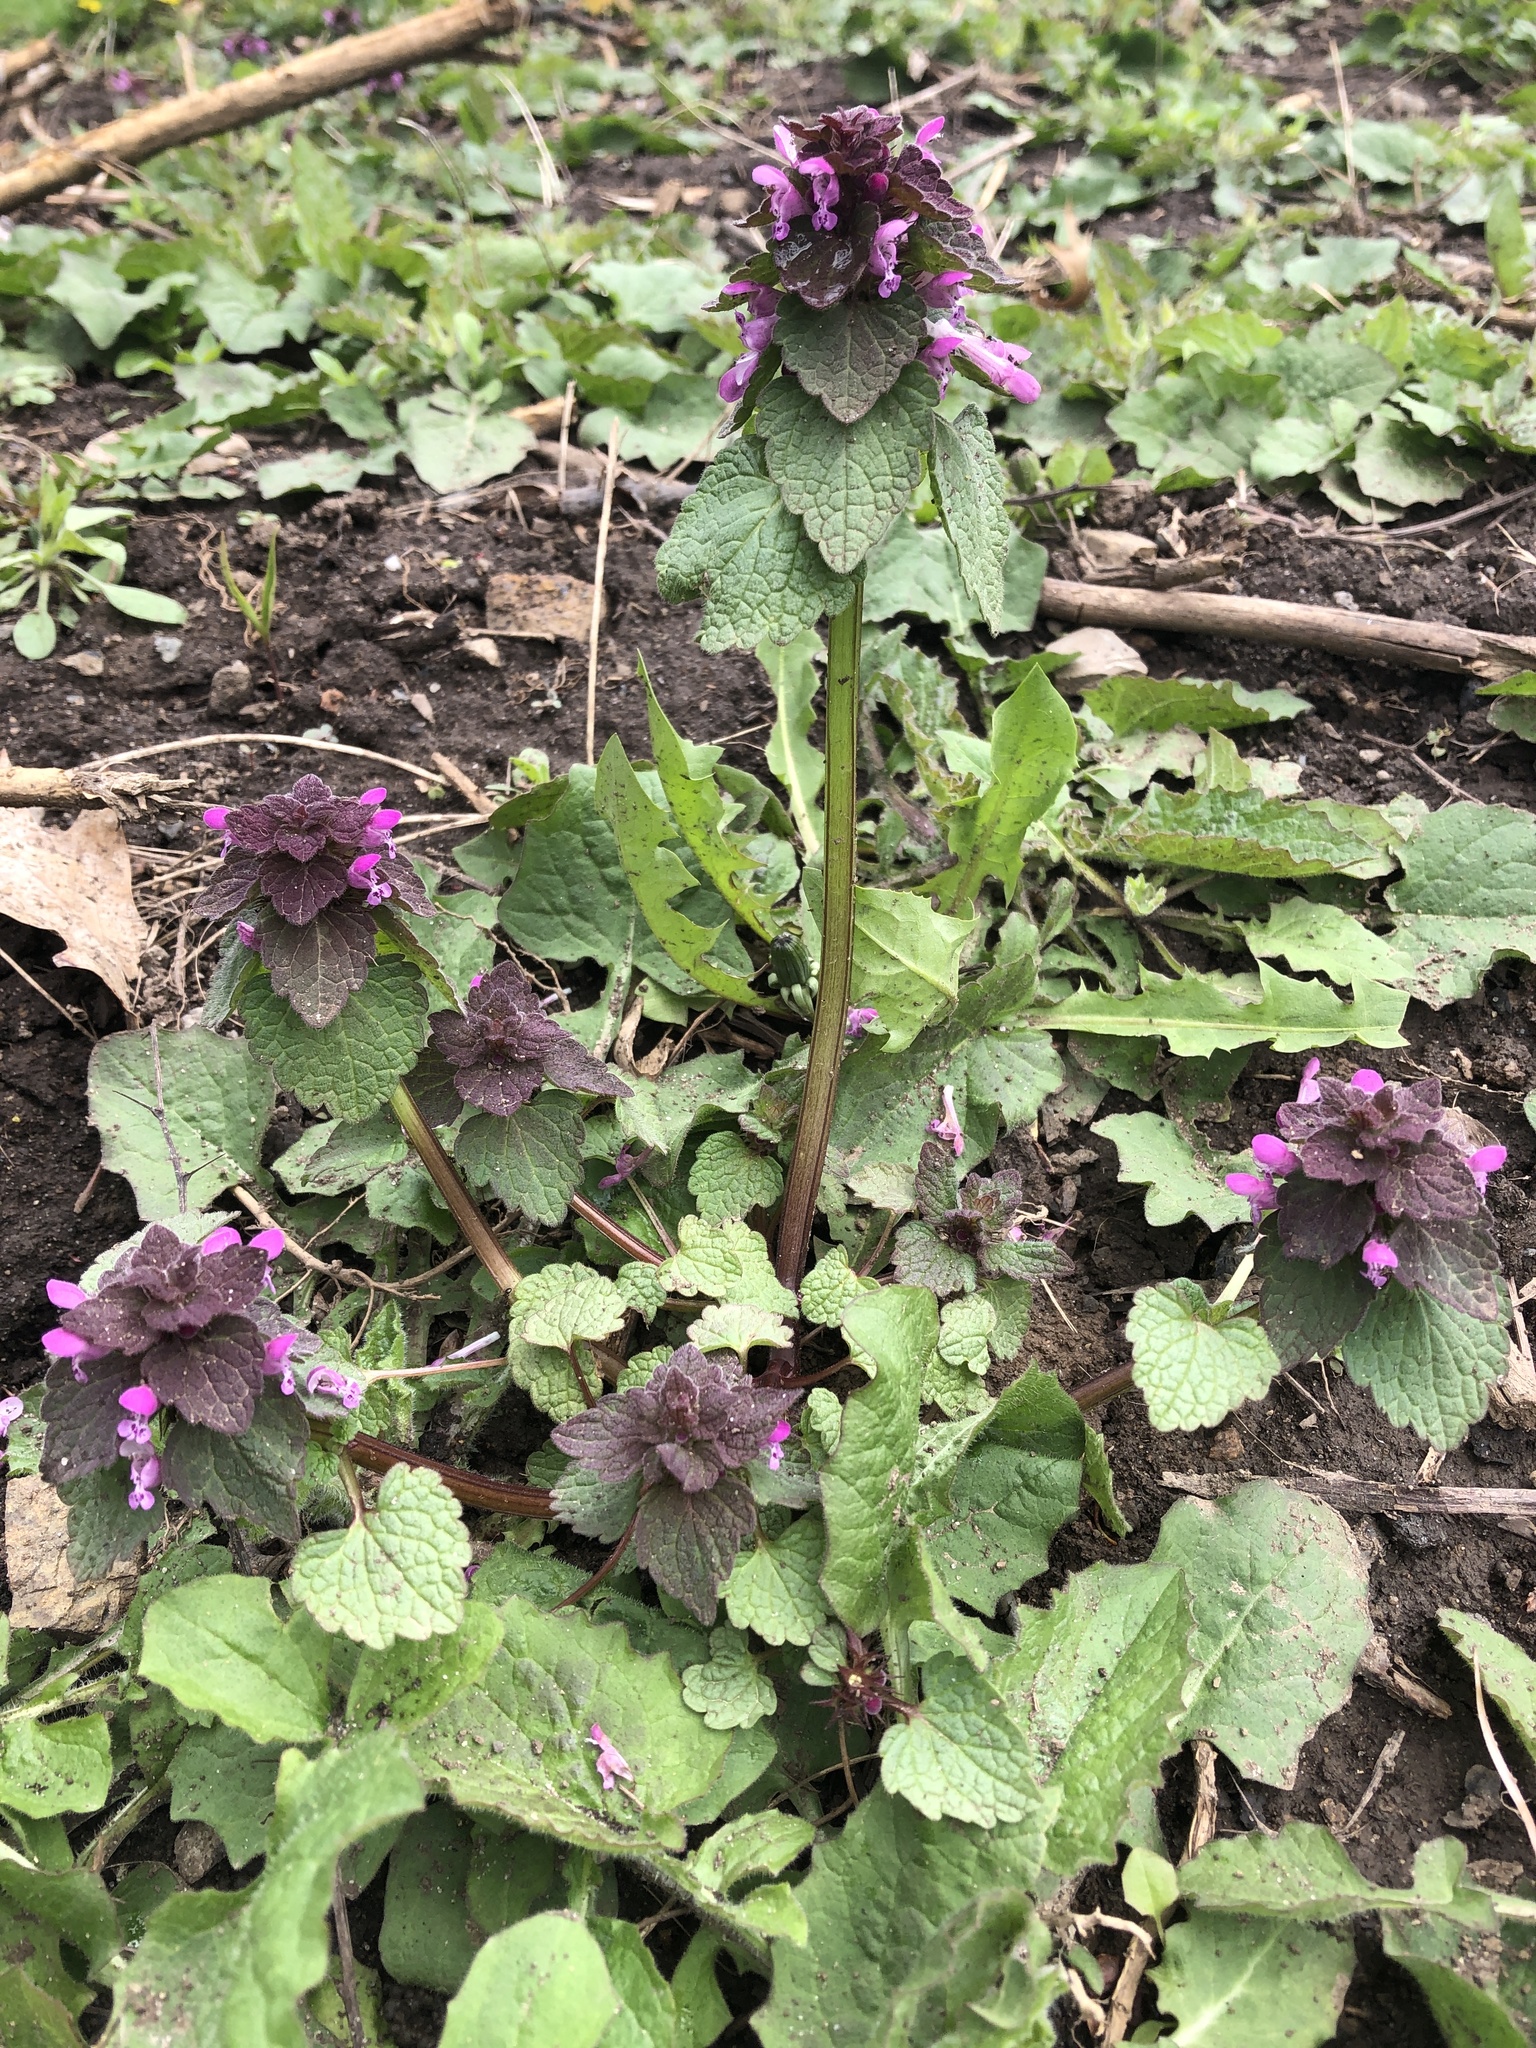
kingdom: Plantae
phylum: Tracheophyta
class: Magnoliopsida
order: Lamiales
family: Lamiaceae
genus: Lamium
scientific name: Lamium purpureum
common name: Red dead-nettle
